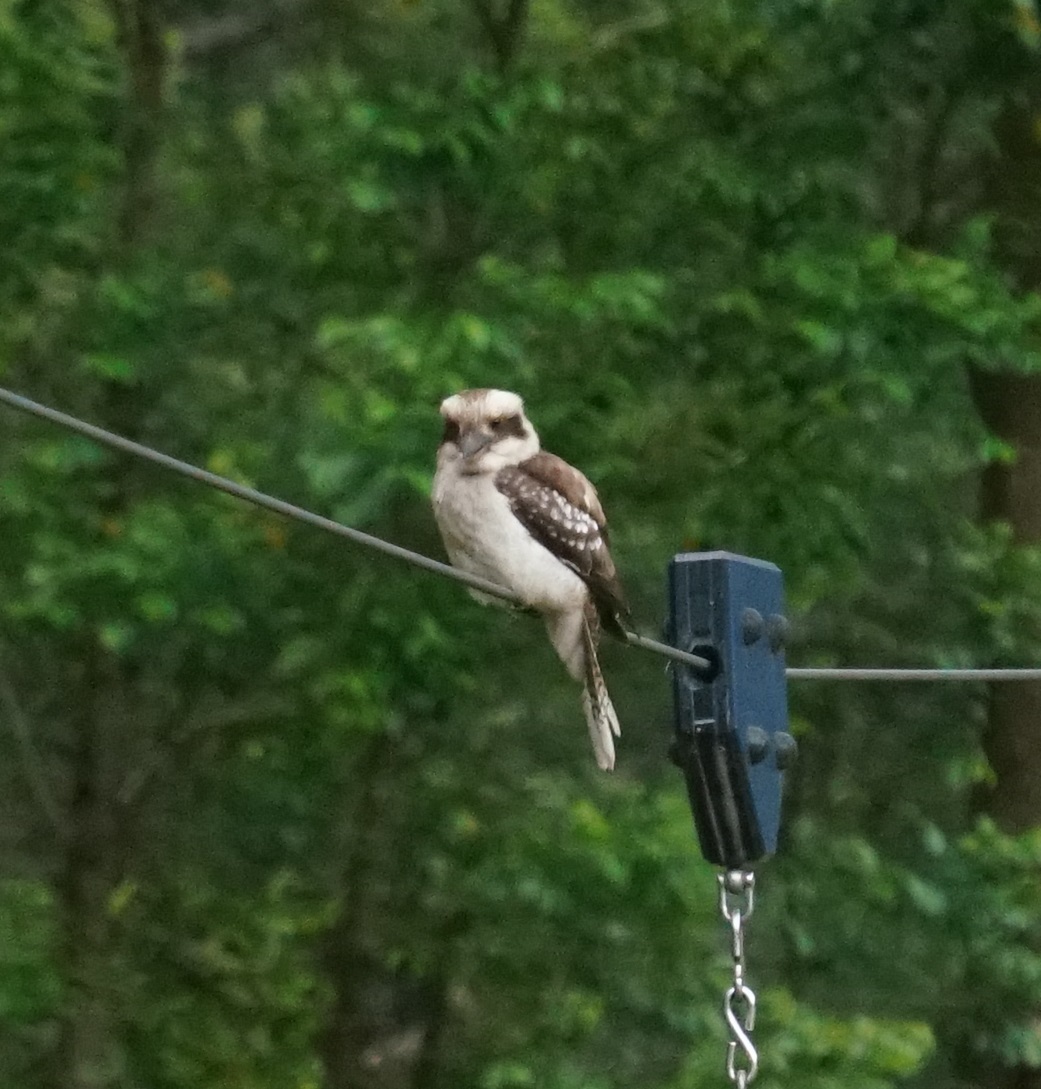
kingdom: Animalia
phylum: Chordata
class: Aves
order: Coraciiformes
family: Alcedinidae
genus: Dacelo
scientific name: Dacelo novaeguineae
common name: Laughing kookaburra
